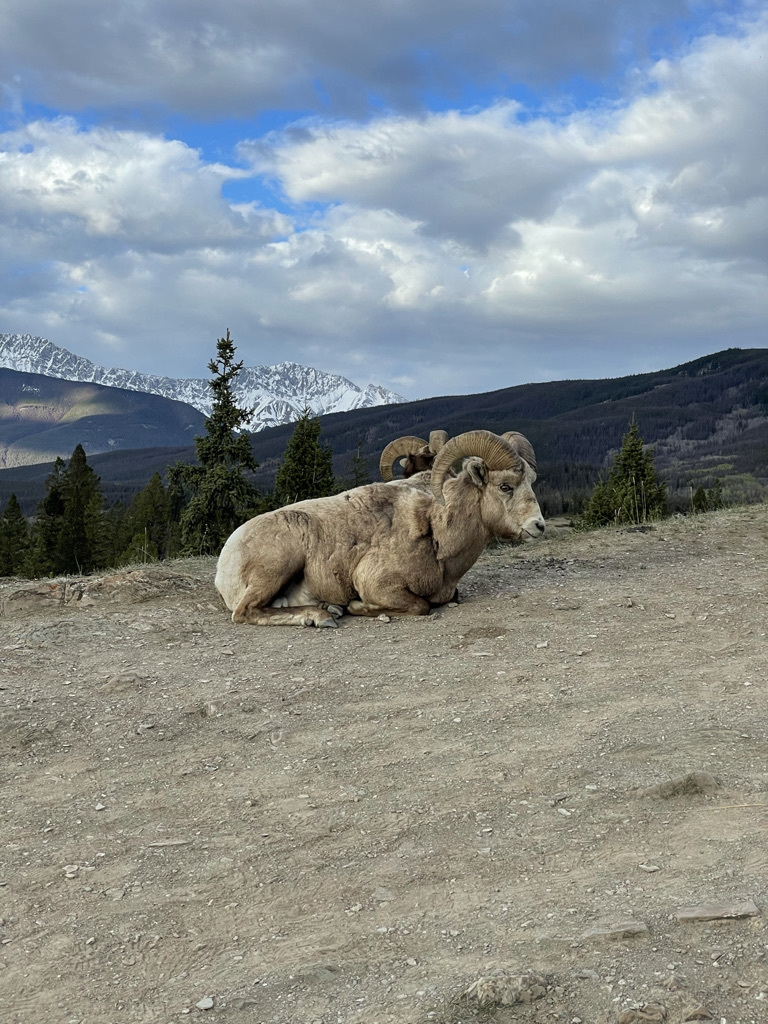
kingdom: Animalia
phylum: Chordata
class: Mammalia
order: Artiodactyla
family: Bovidae
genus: Ovis
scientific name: Ovis canadensis
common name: Bighorn sheep
